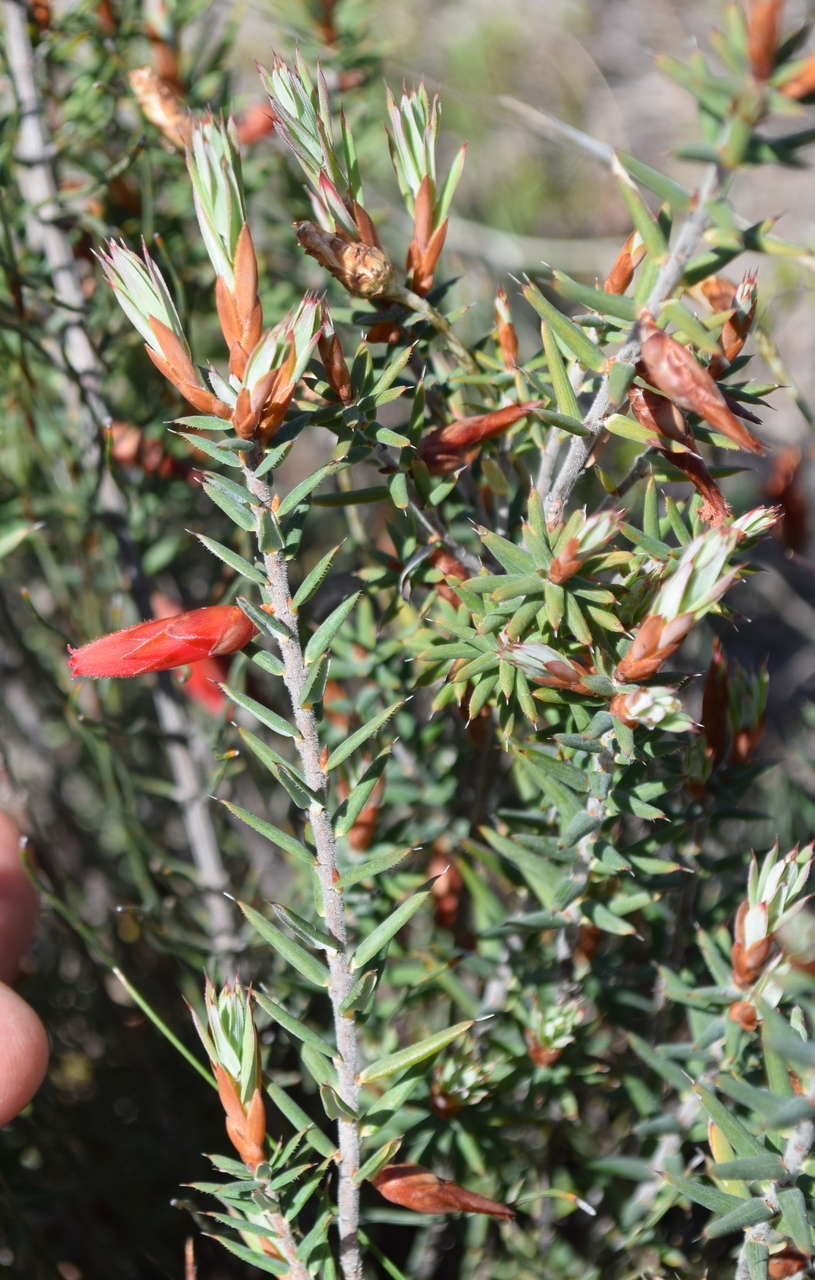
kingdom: Plantae
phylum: Tracheophyta
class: Magnoliopsida
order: Ericales
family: Ericaceae
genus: Stenanthera
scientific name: Stenanthera conostephioides
